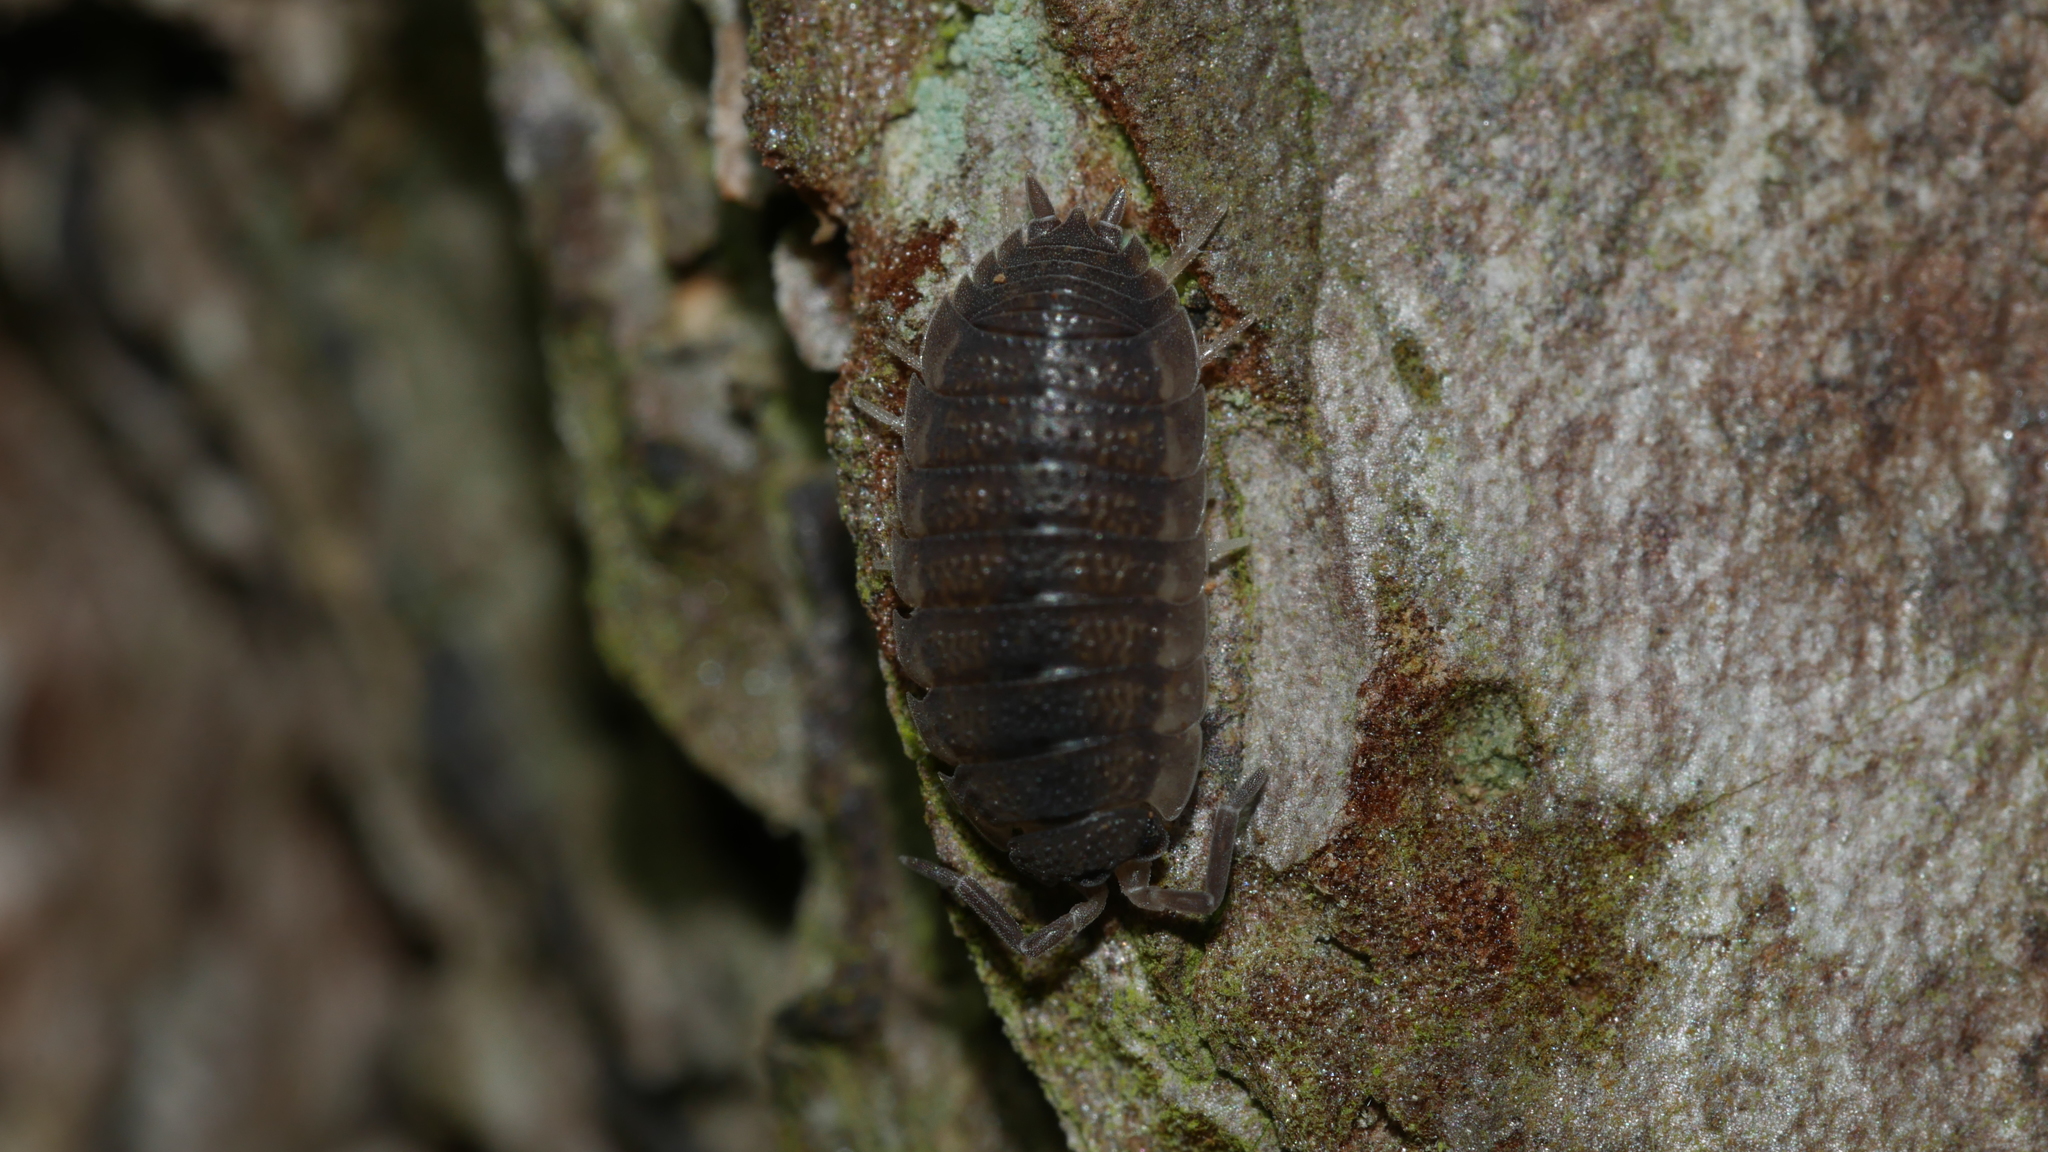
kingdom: Animalia
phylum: Arthropoda
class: Malacostraca
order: Isopoda
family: Porcellionidae
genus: Porcellio
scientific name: Porcellio scaber
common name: Common rough woodlouse
